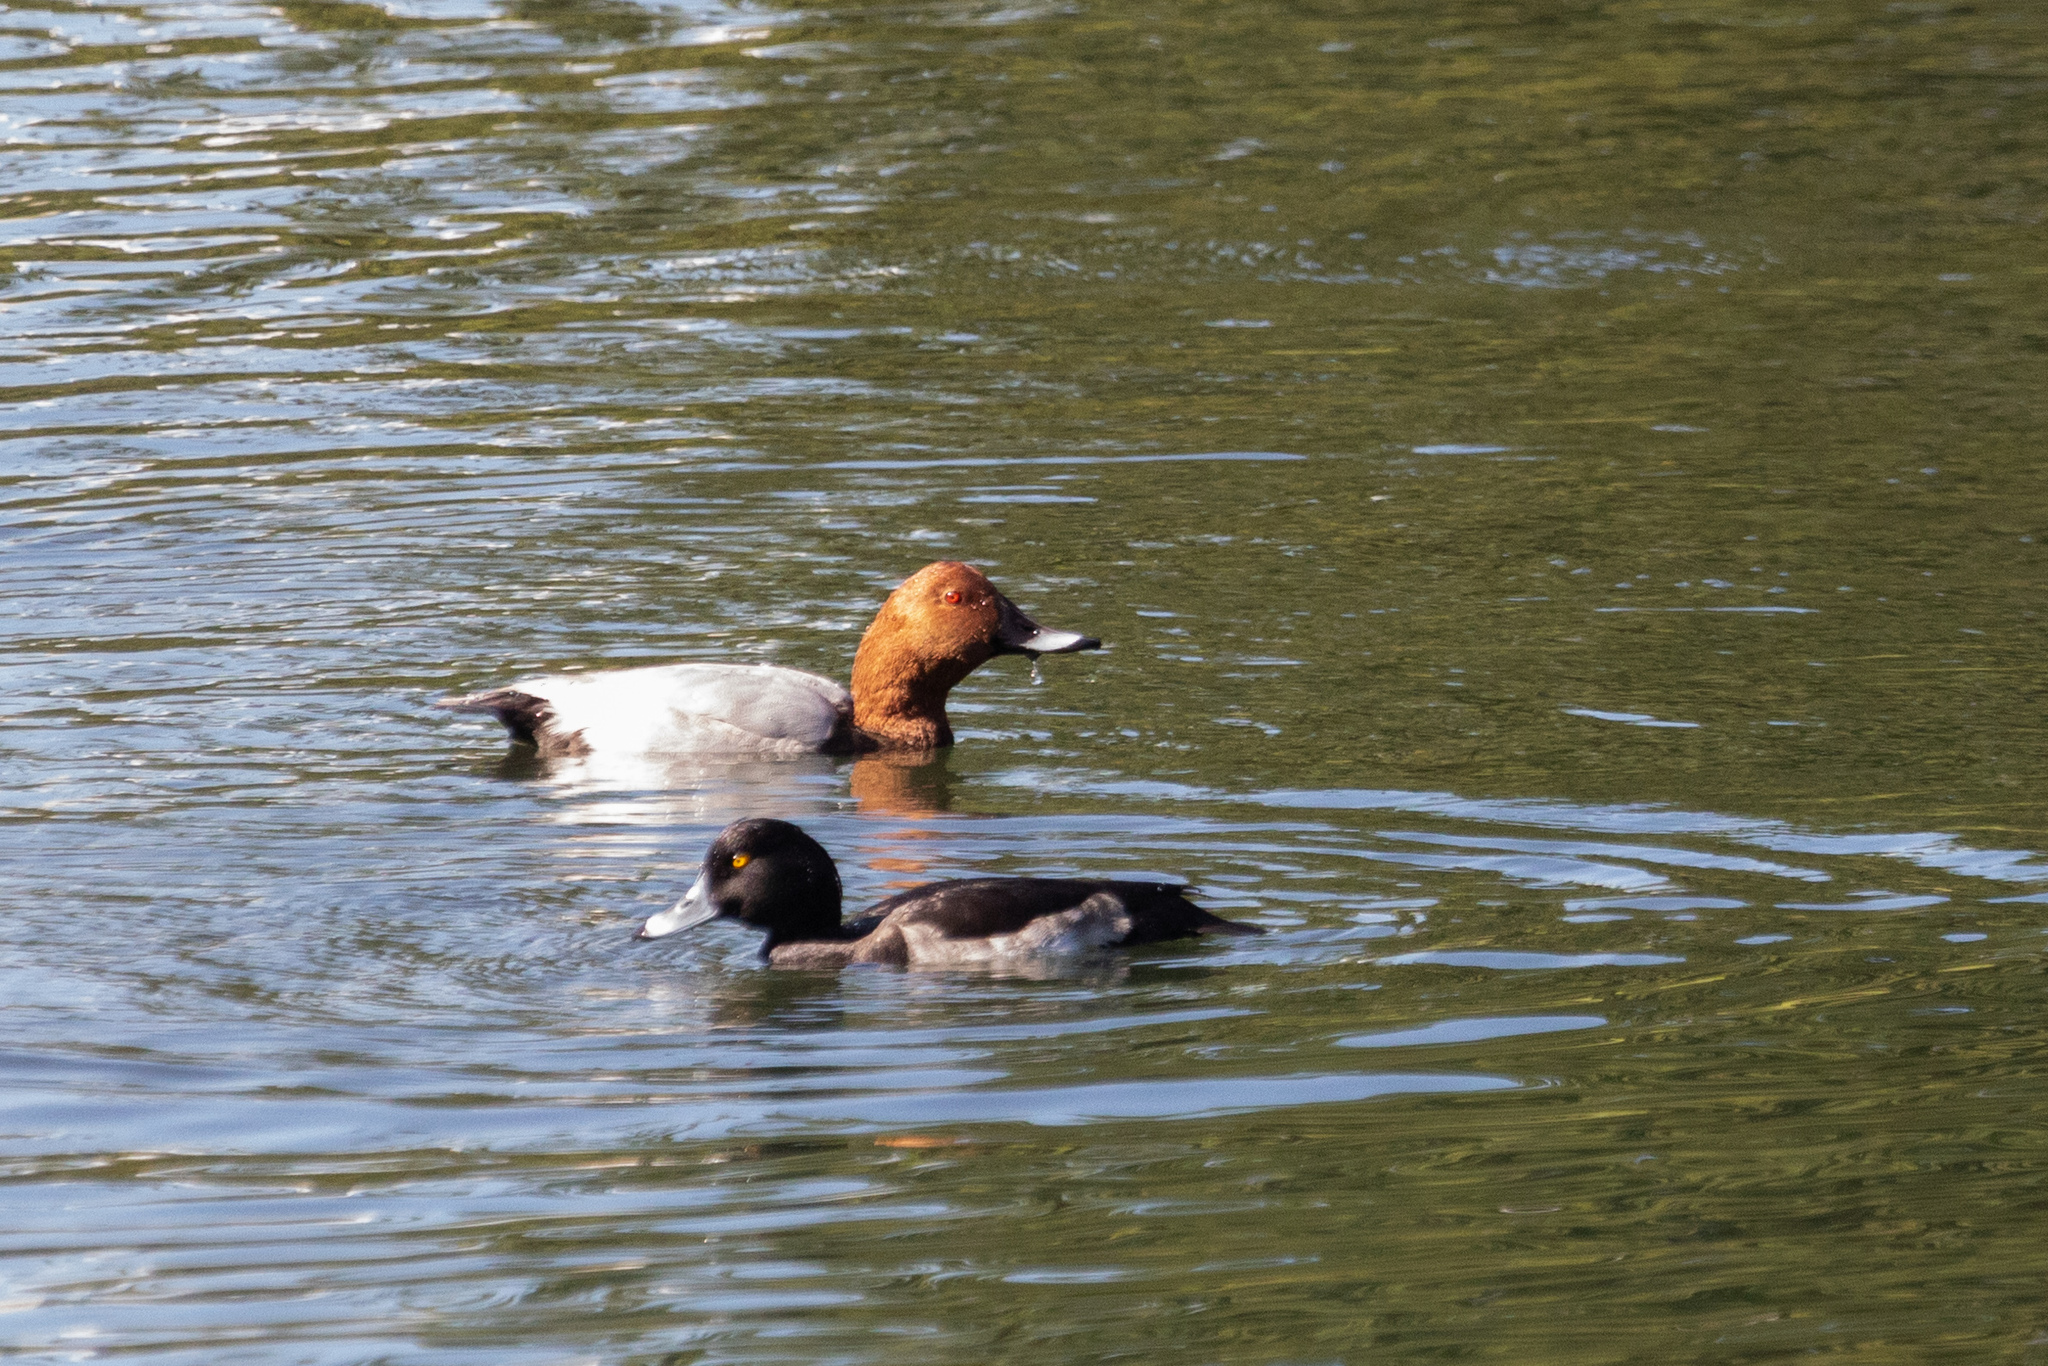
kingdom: Animalia
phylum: Chordata
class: Aves
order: Anseriformes
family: Anatidae
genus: Aythya
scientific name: Aythya ferina
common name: Common pochard
